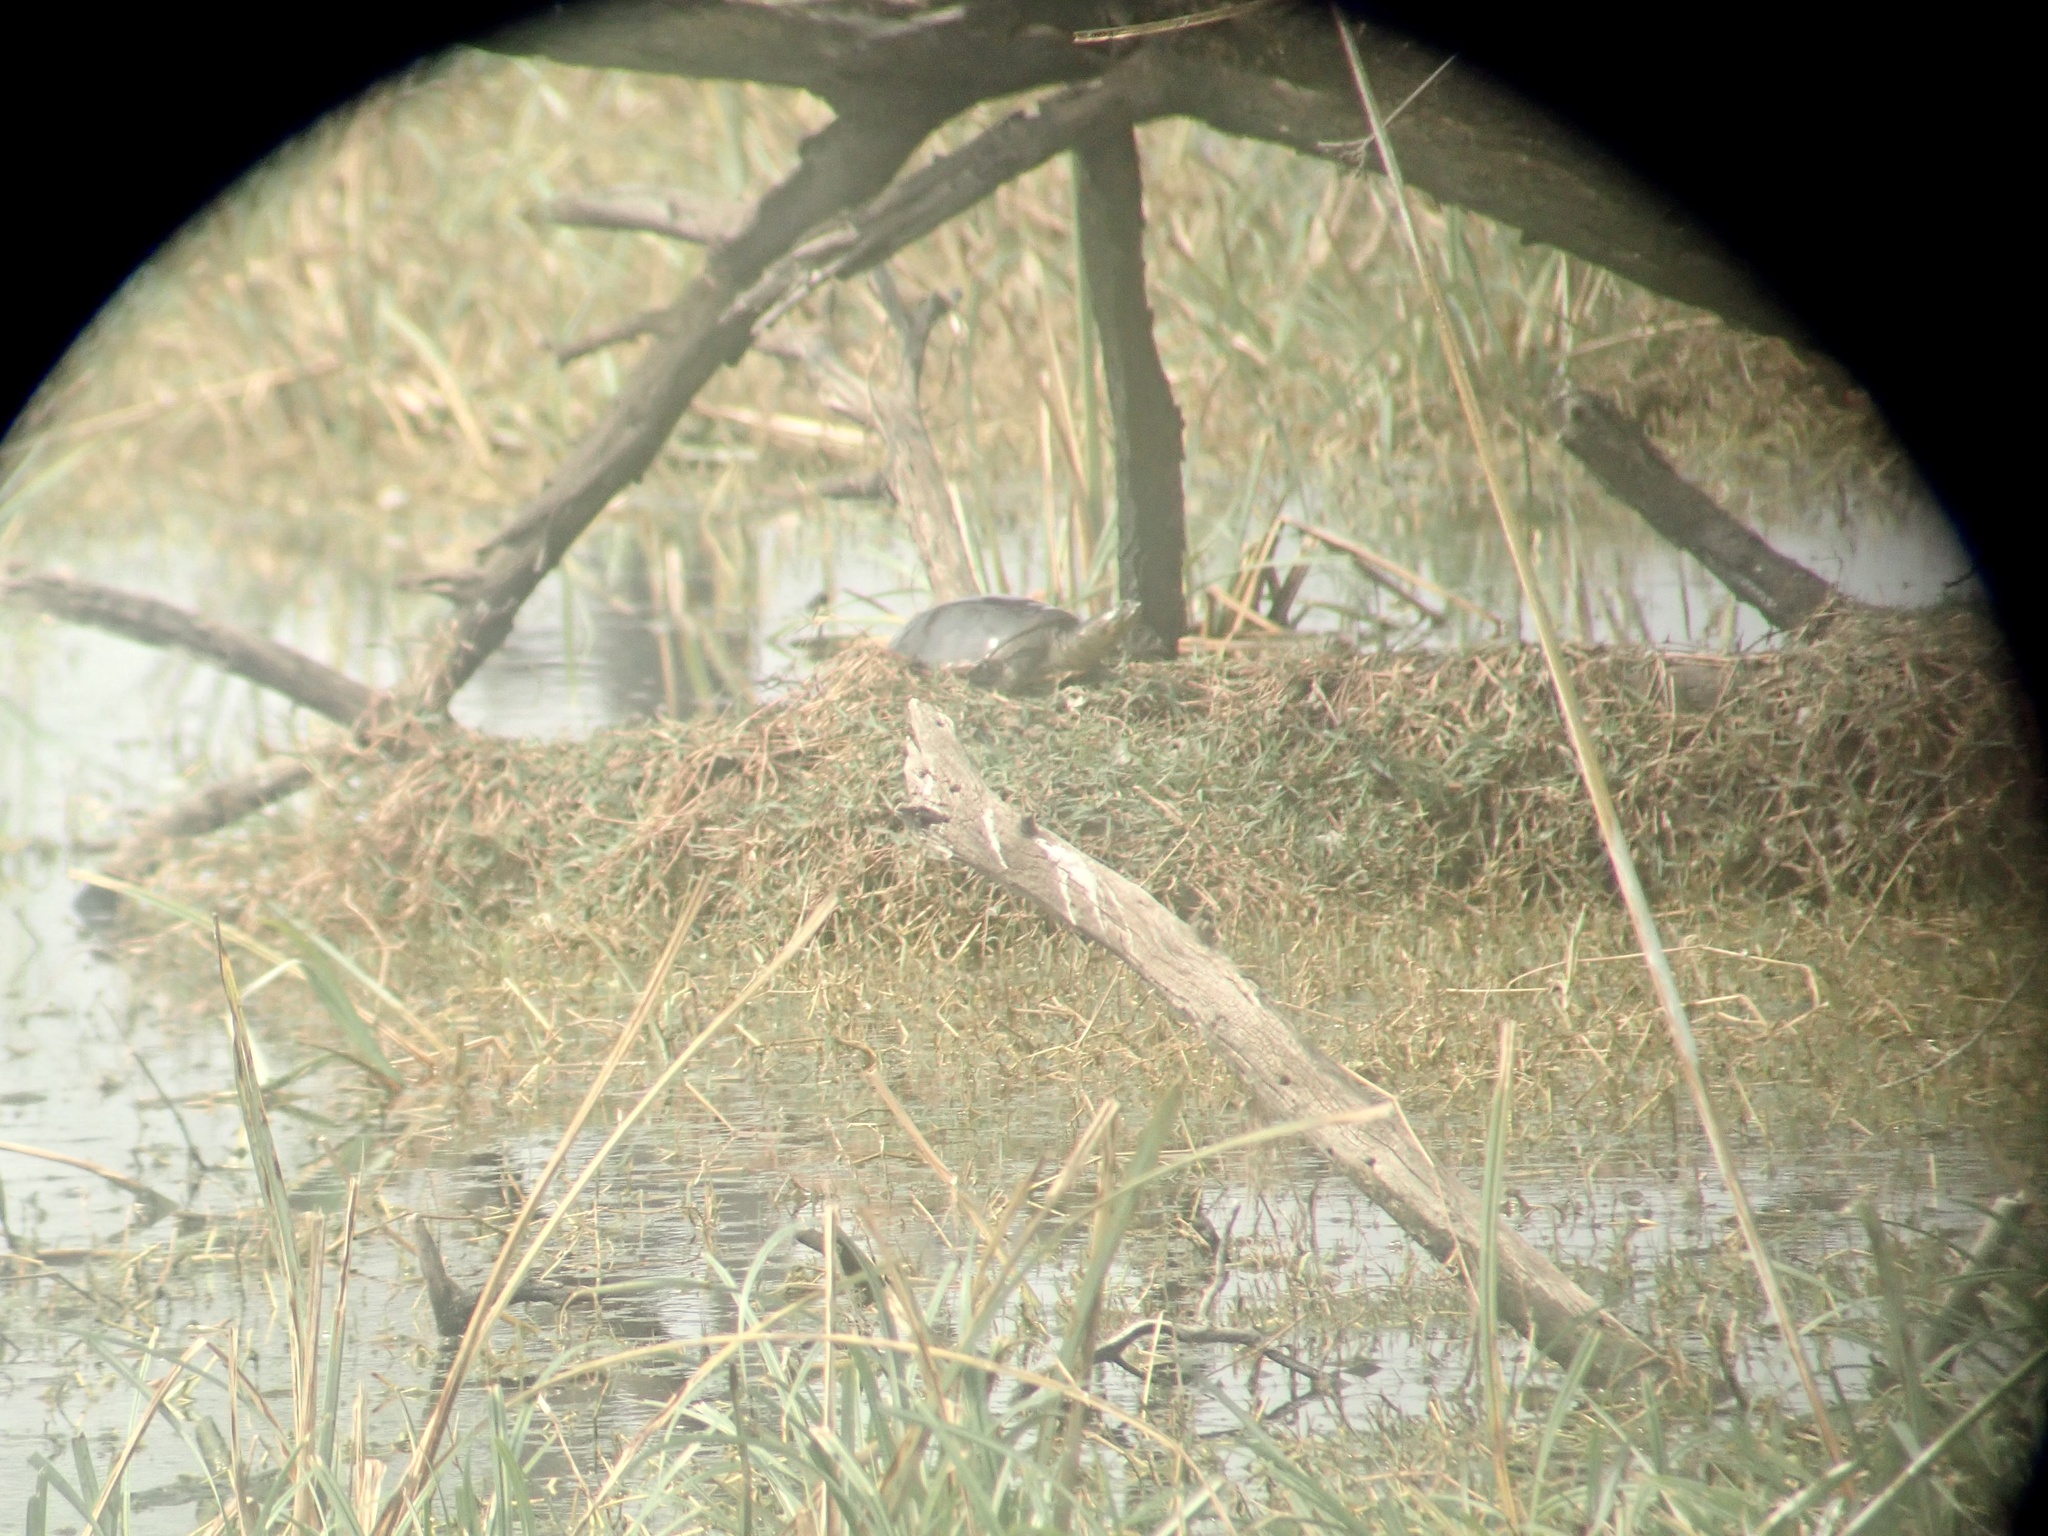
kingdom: Animalia
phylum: Chordata
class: Testudines
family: Trionychidae
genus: Lissemys
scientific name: Lissemys punctata
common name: Indian flap-shelled turtle
